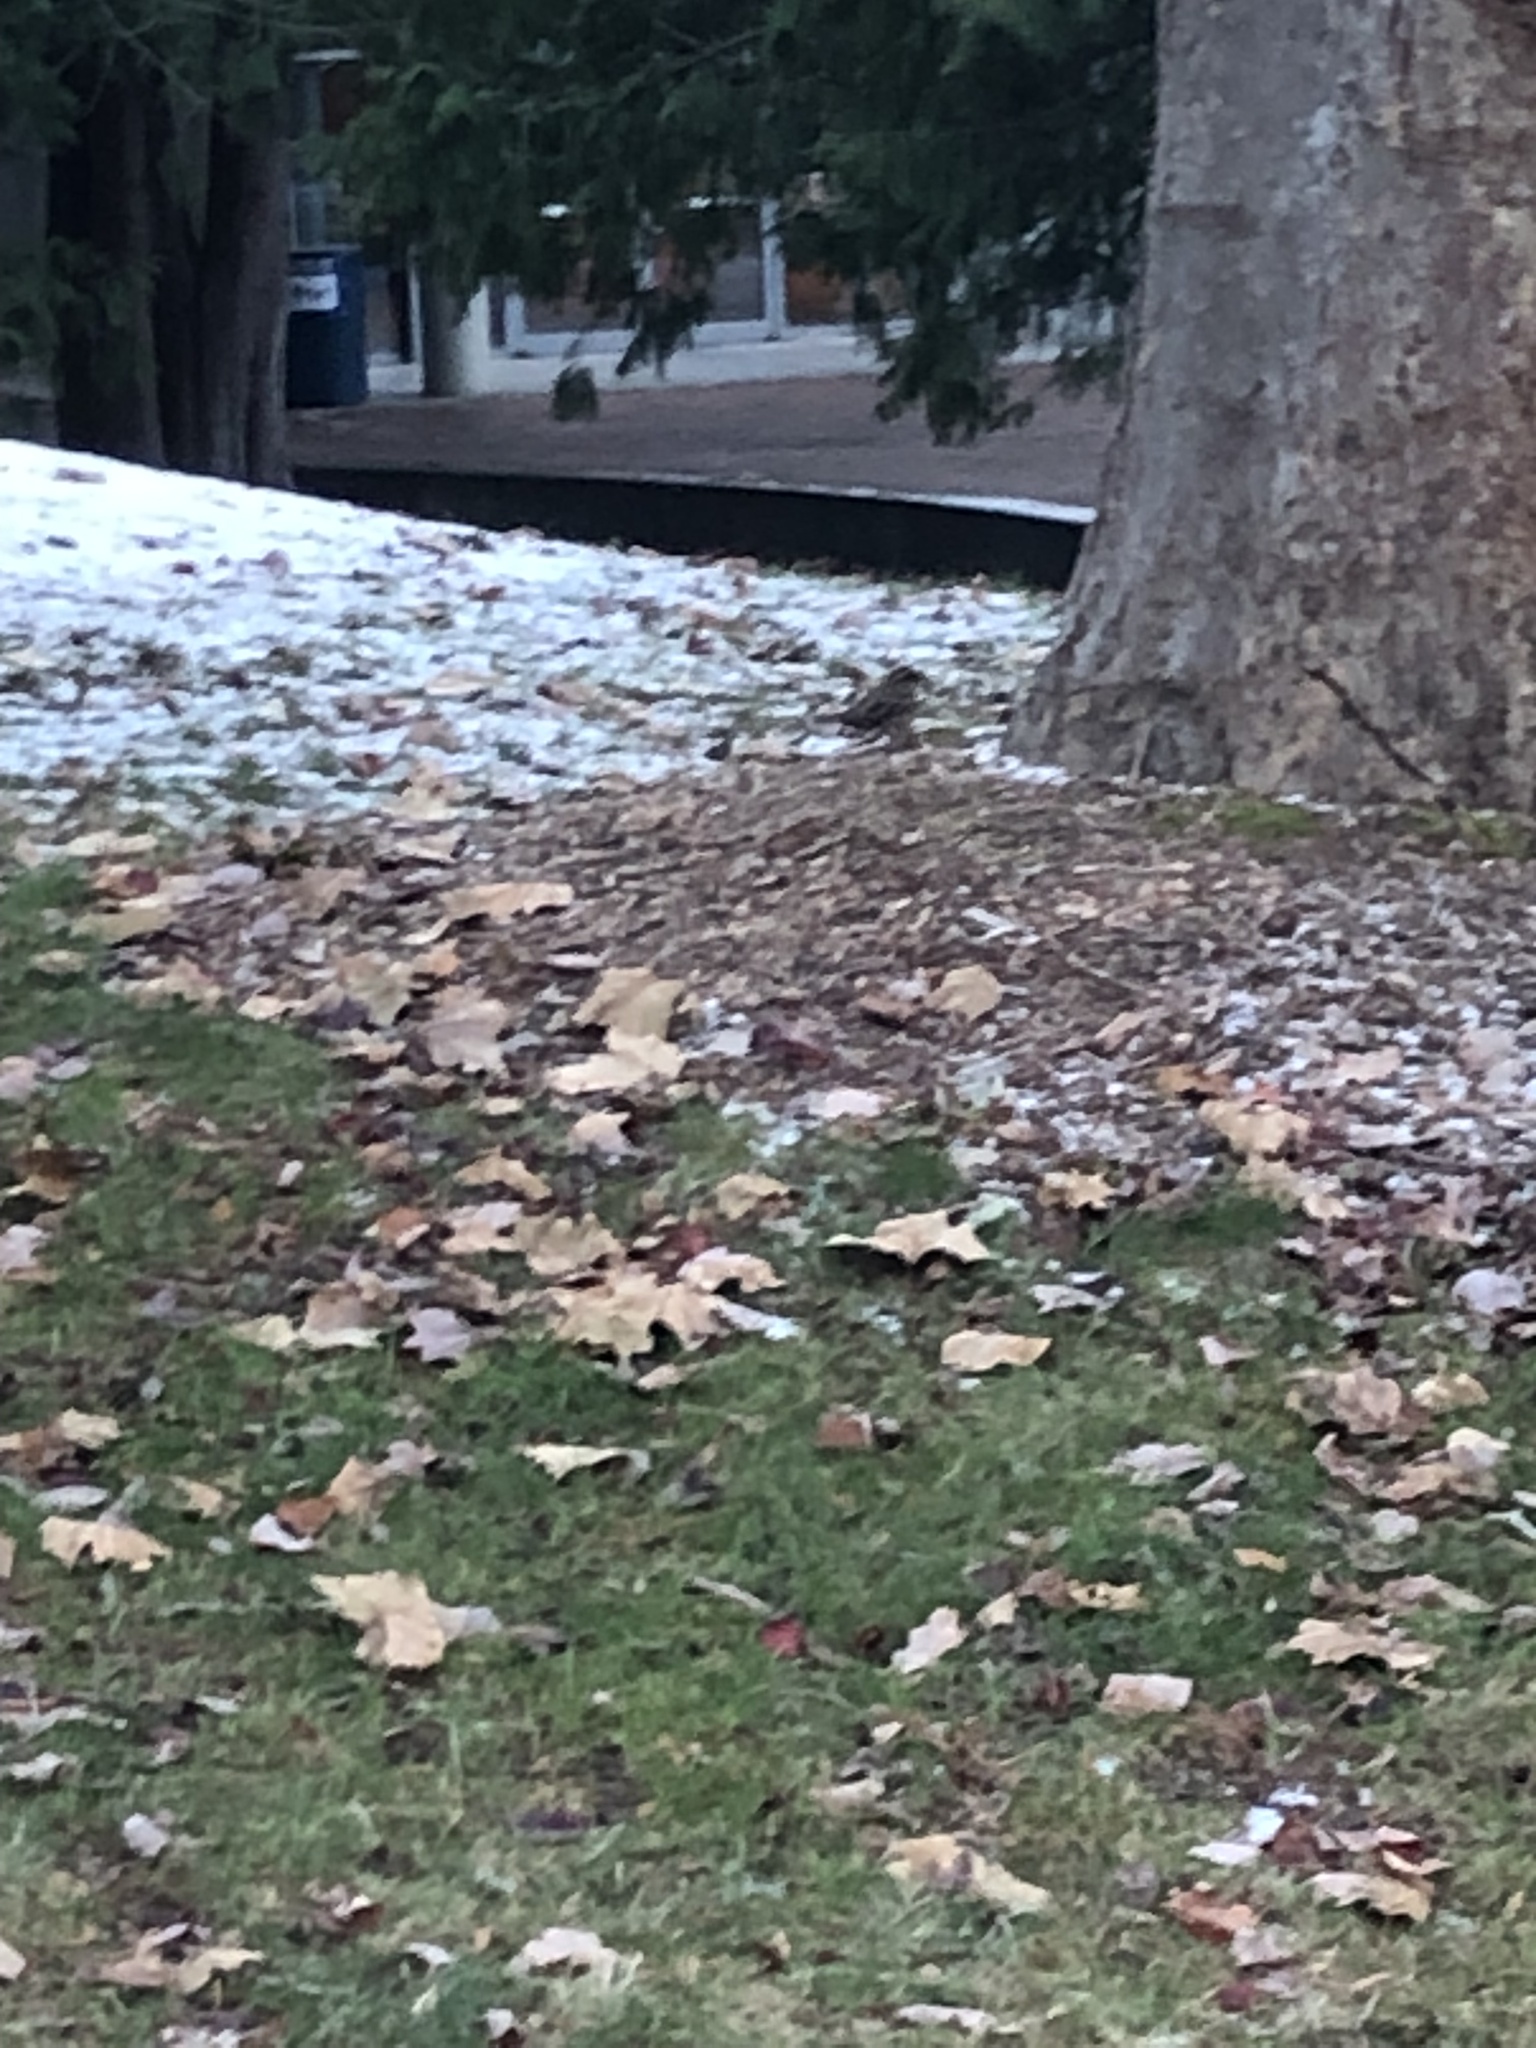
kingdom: Animalia
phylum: Chordata
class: Aves
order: Passeriformes
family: Turdidae
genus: Ixoreus
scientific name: Ixoreus naevius
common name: Varied thrush
